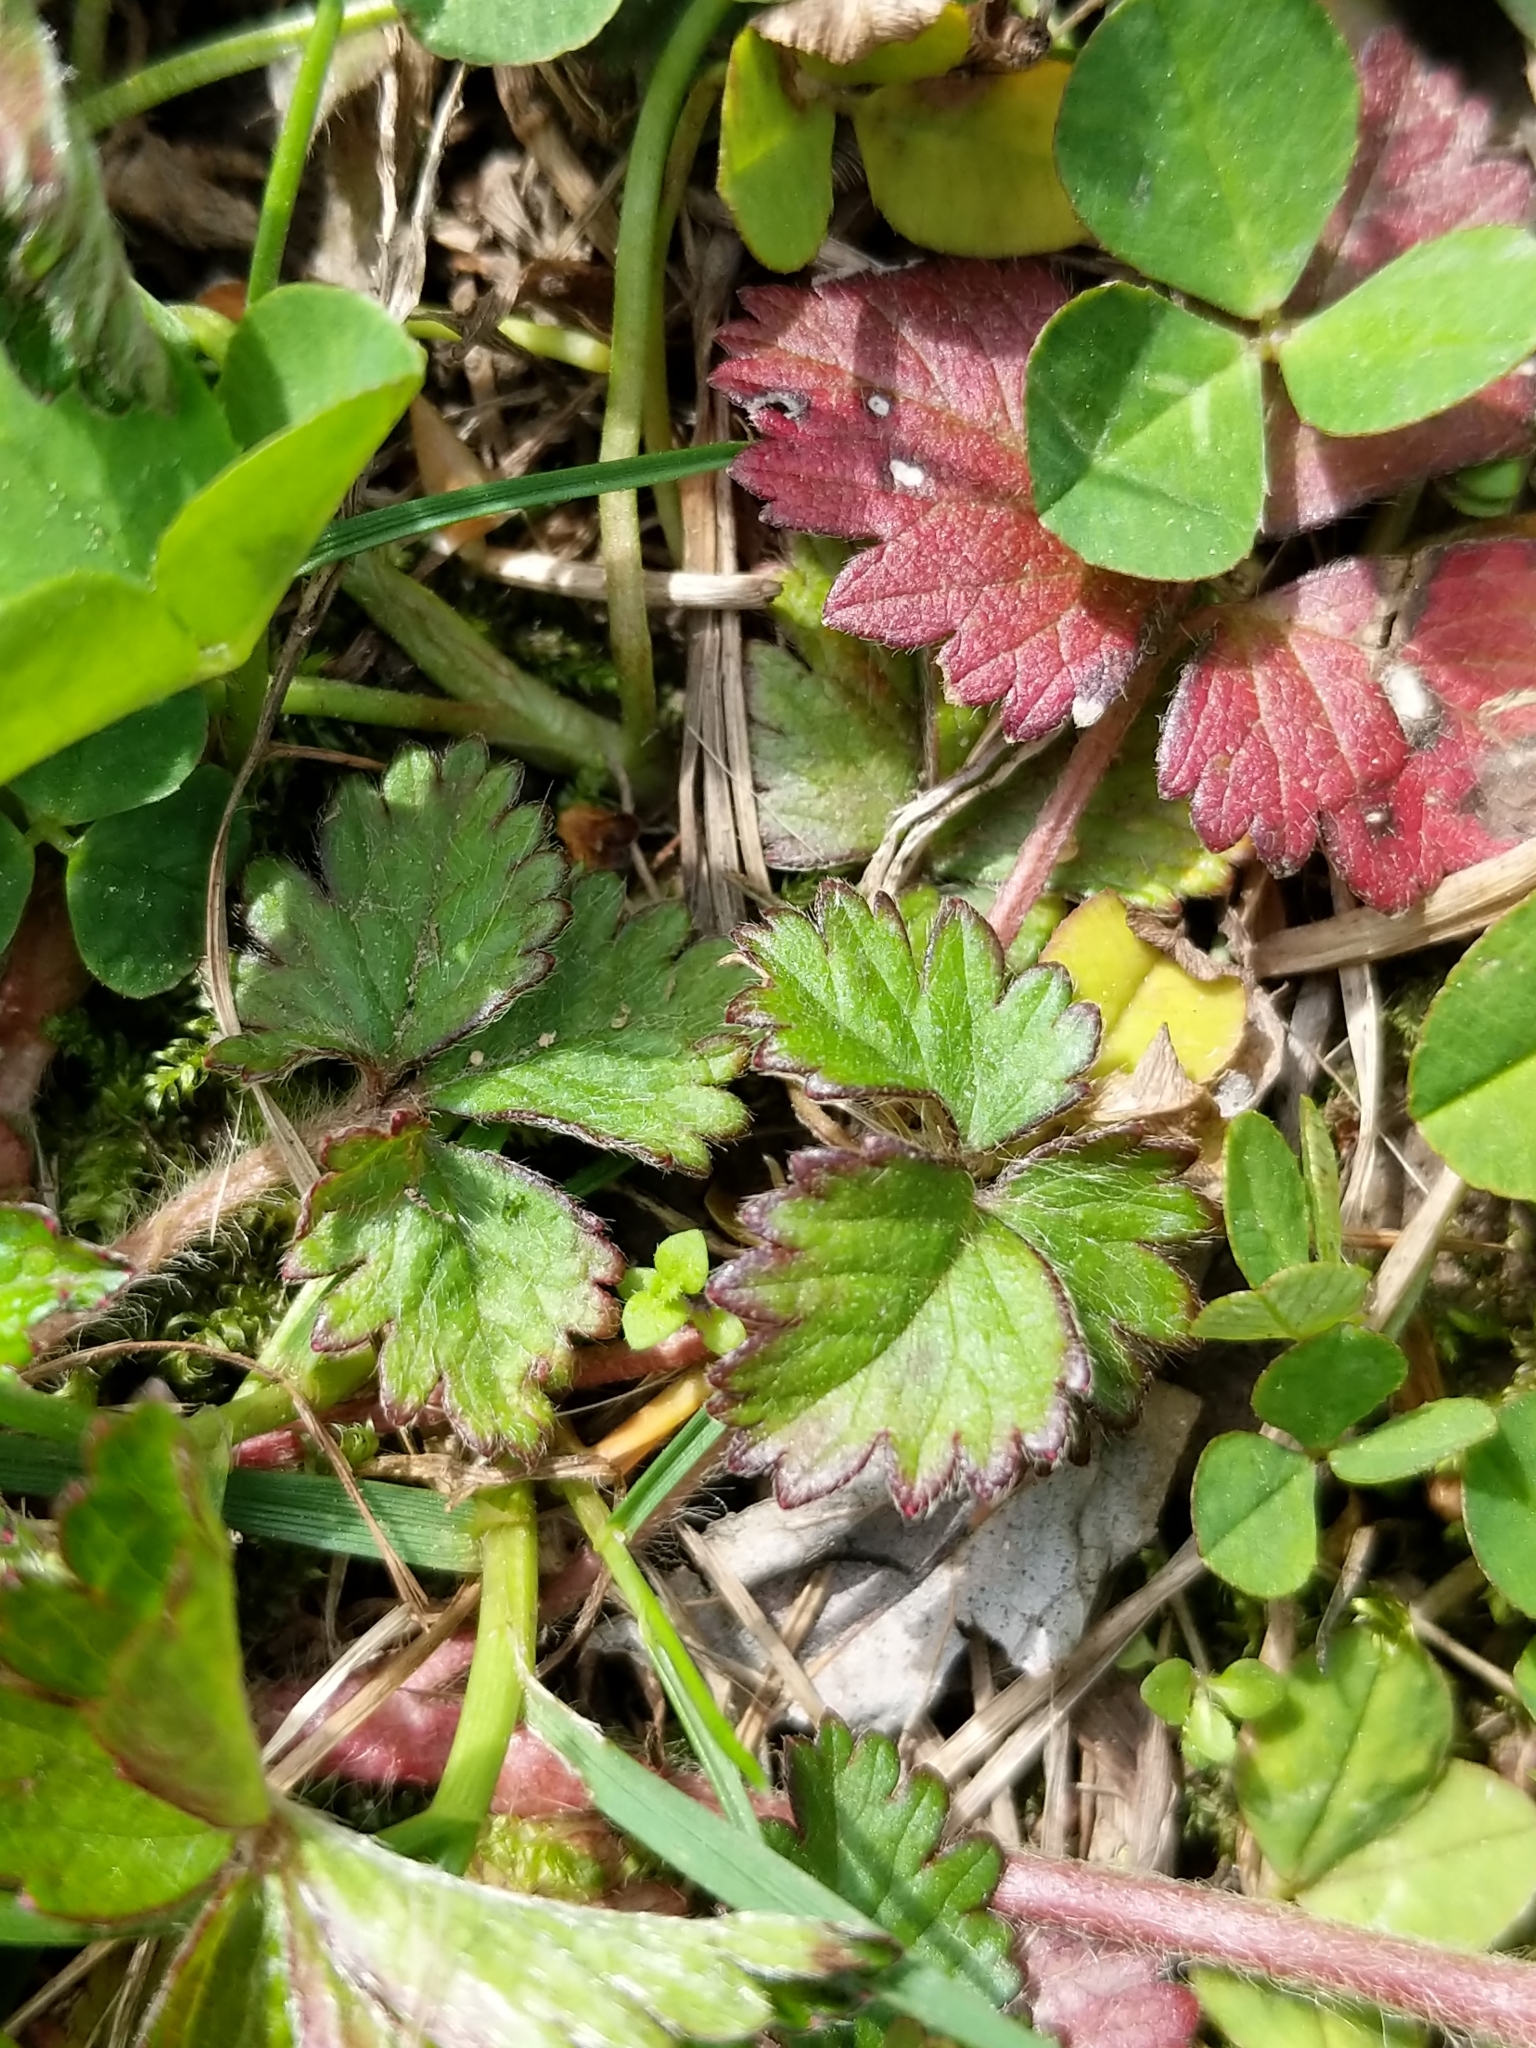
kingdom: Plantae
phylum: Tracheophyta
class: Magnoliopsida
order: Rosales
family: Rosaceae
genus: Potentilla
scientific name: Potentilla indica
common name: Yellow-flowered strawberry
